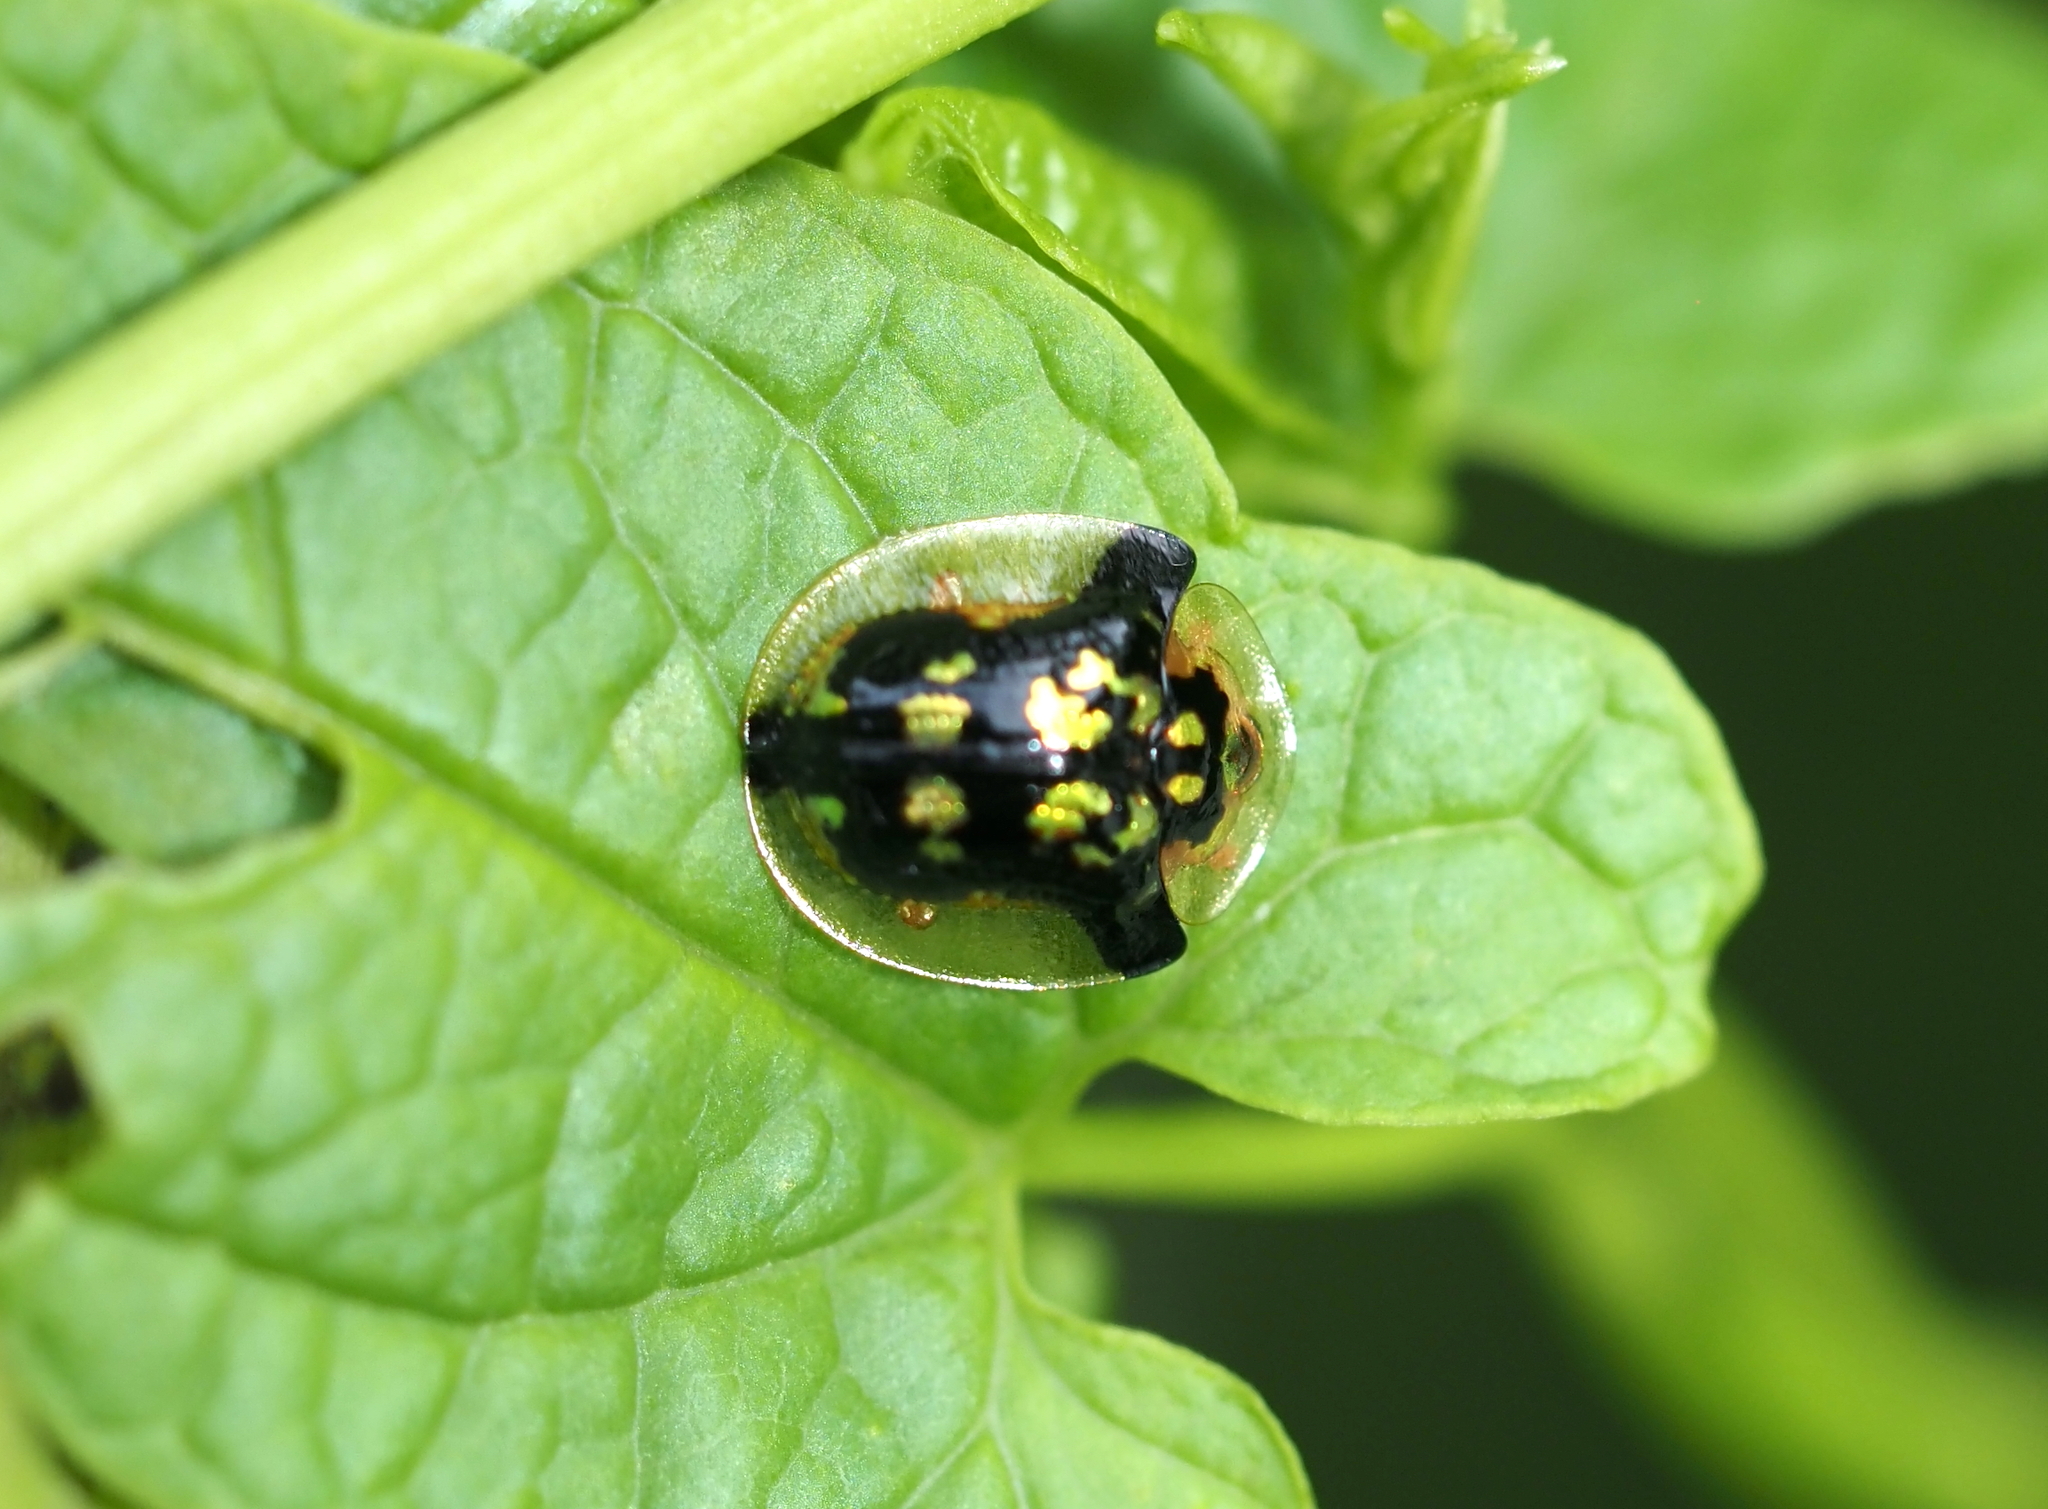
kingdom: Animalia
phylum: Arthropoda
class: Insecta
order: Coleoptera
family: Chrysomelidae
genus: Deloyala
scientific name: Deloyala guttata
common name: Mottled tortoise beetle
